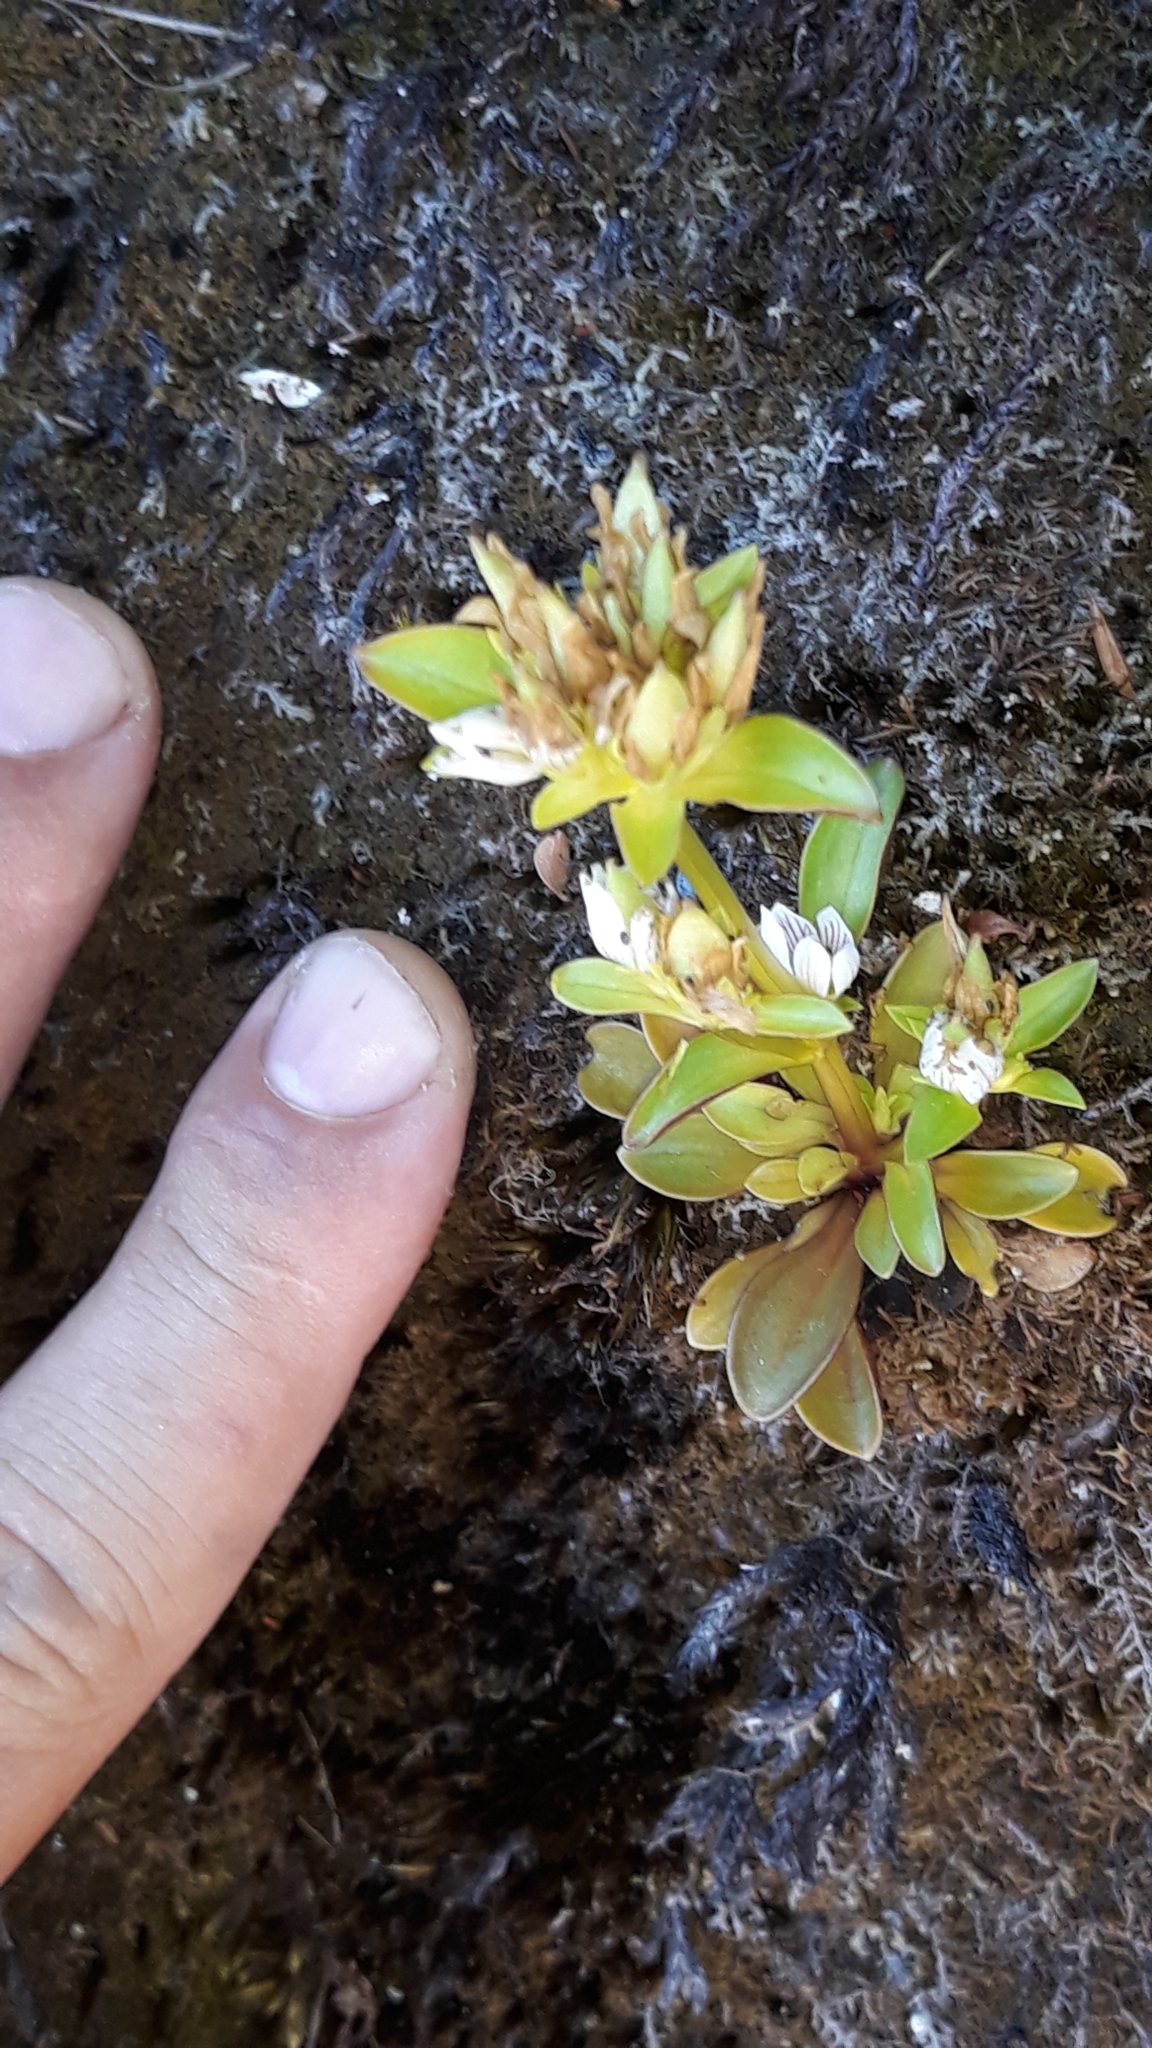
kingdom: Plantae
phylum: Tracheophyta
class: Magnoliopsida
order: Gentianales
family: Gentianaceae
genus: Gentianella
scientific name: Gentianella spenceri
